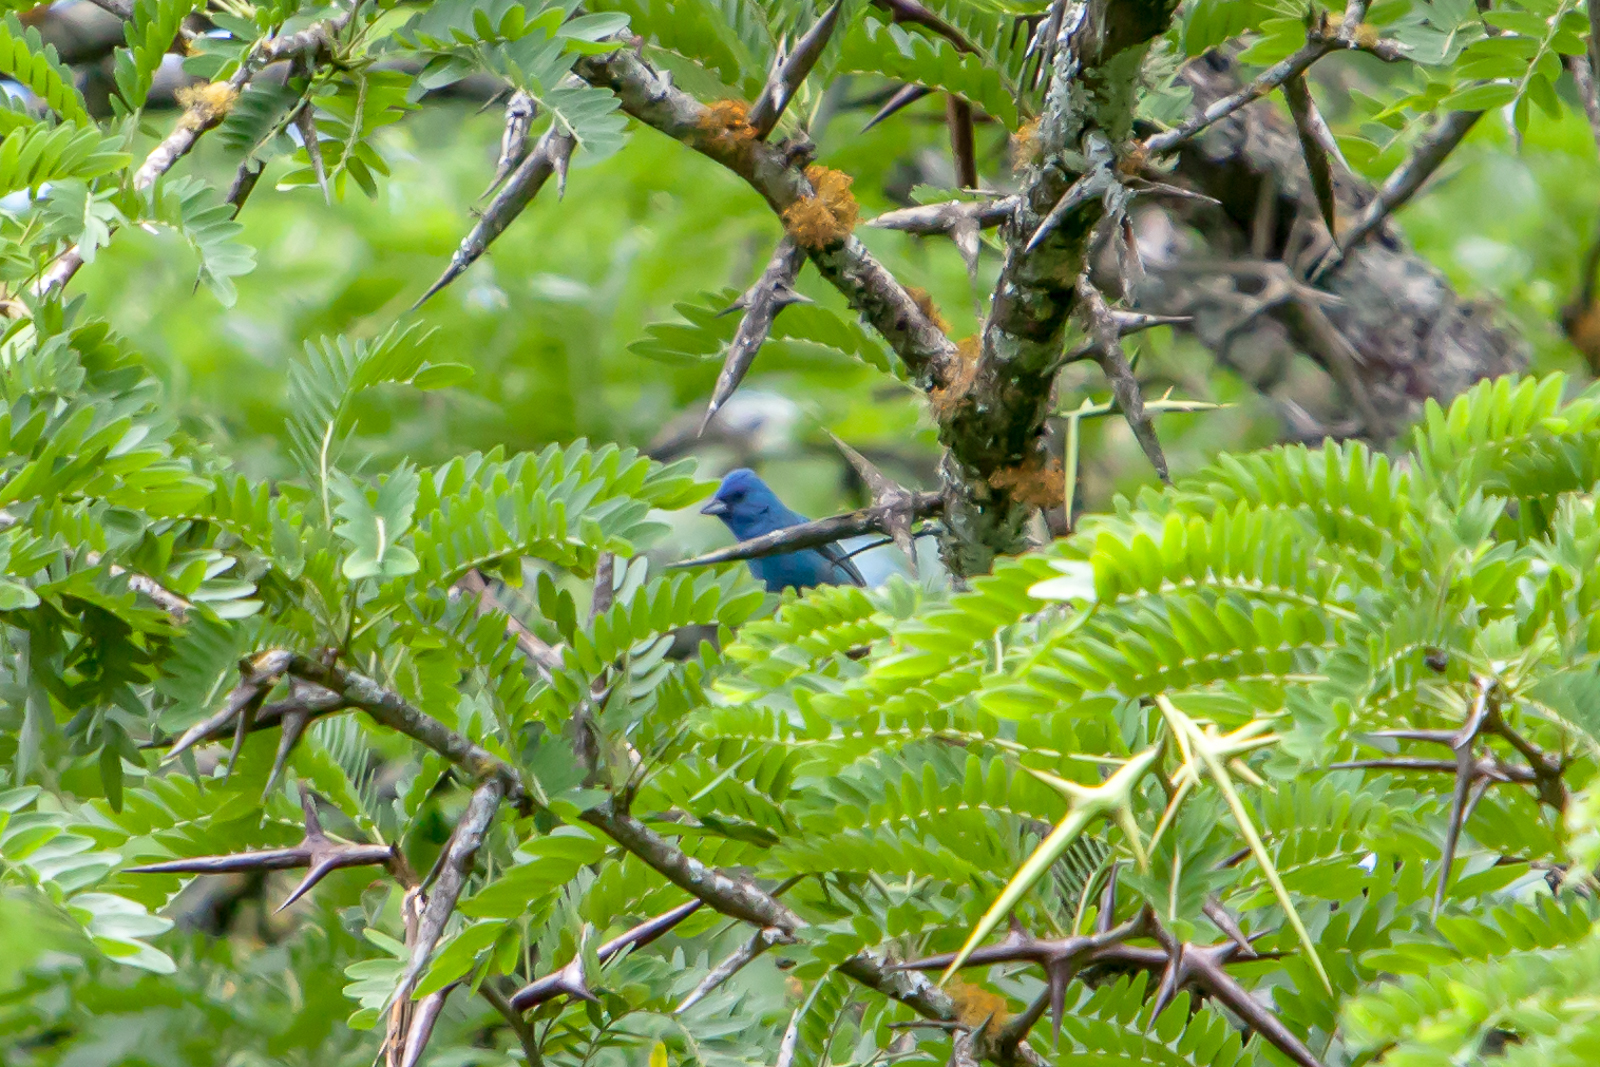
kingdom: Animalia
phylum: Chordata
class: Aves
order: Passeriformes
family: Cardinalidae
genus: Passerina
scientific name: Passerina cyanea
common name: Indigo bunting
